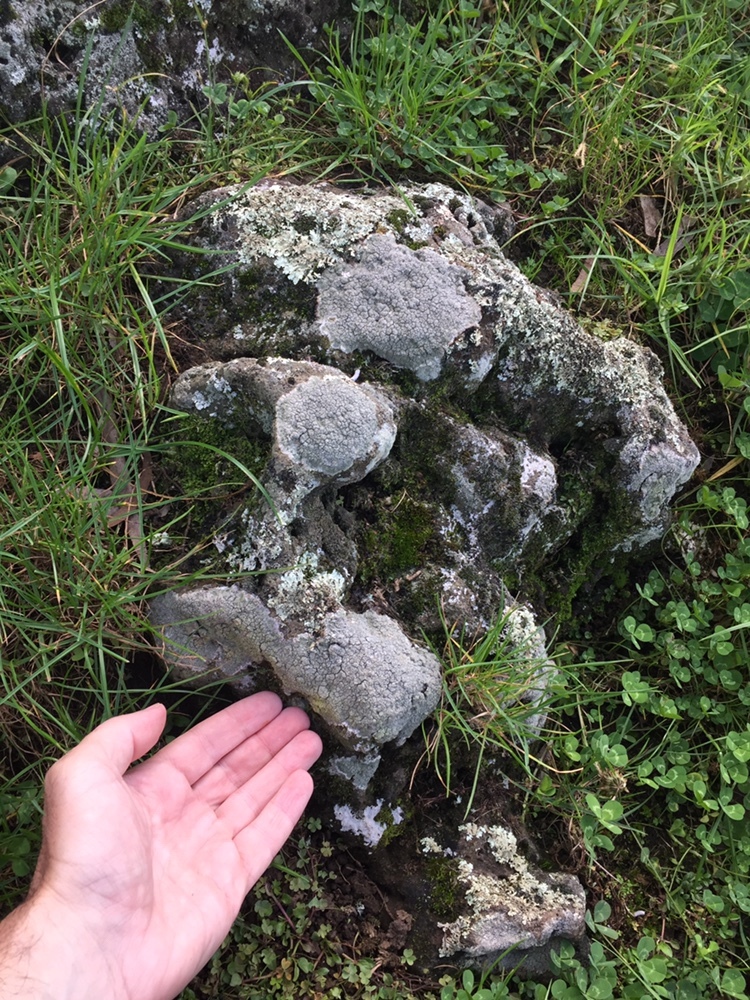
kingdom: Fungi
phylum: Ascomycota
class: Lecanoromycetes
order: Ostropales
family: Graphidaceae
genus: Diploschistes
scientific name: Diploschistes bartlettii
